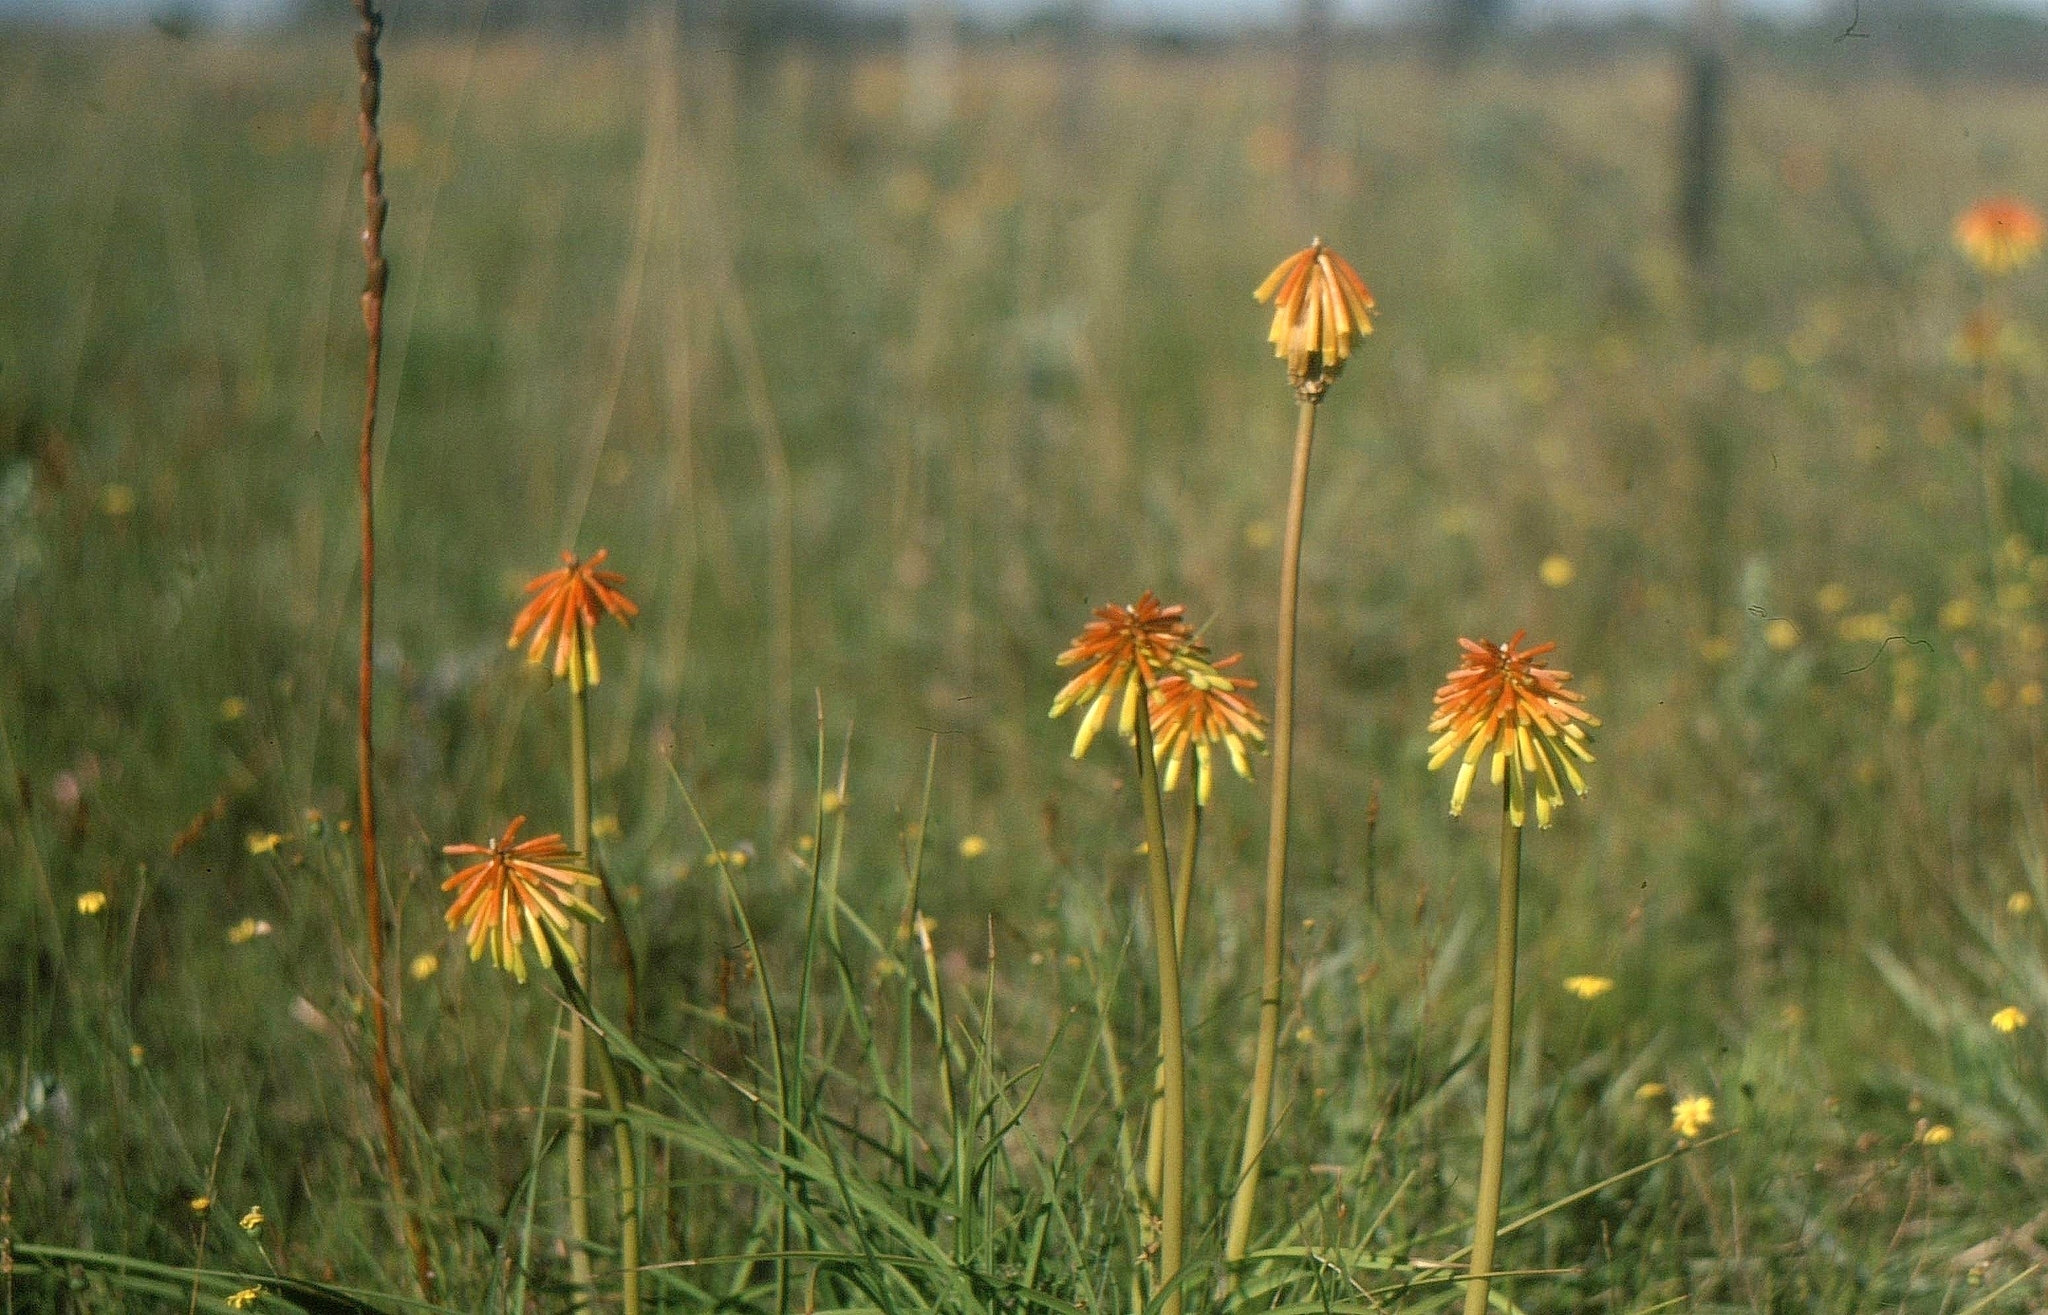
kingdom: Plantae
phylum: Tracheophyta
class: Liliopsida
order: Asparagales
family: Asphodelaceae
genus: Kniphofia
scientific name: Kniphofia uvaria
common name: Red-hot-poker
